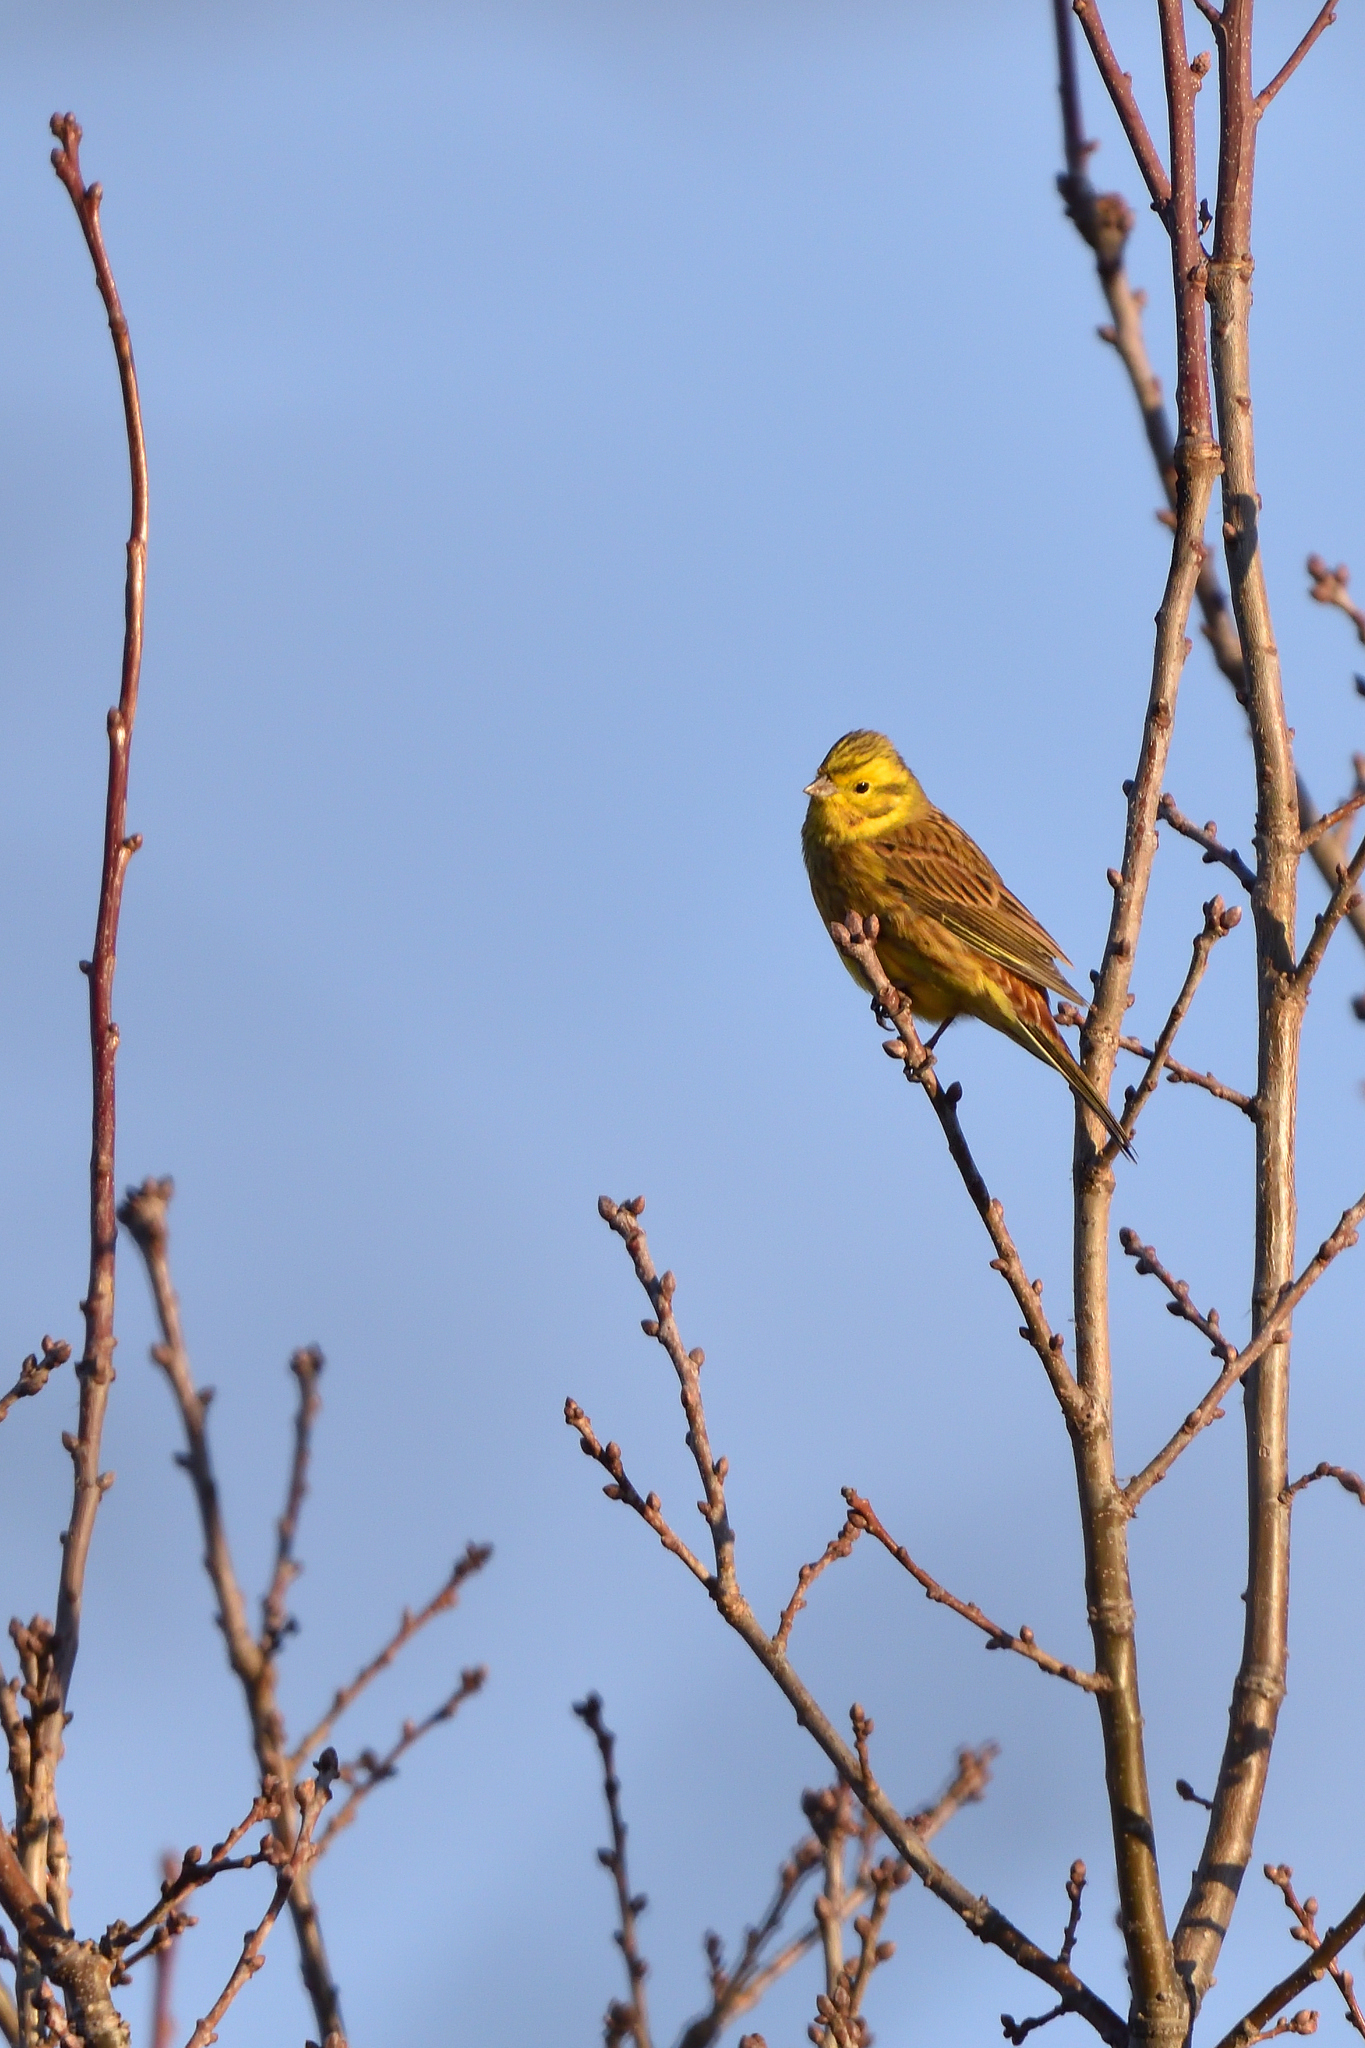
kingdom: Animalia
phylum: Chordata
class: Aves
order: Passeriformes
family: Emberizidae
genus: Emberiza
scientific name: Emberiza citrinella
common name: Yellowhammer
